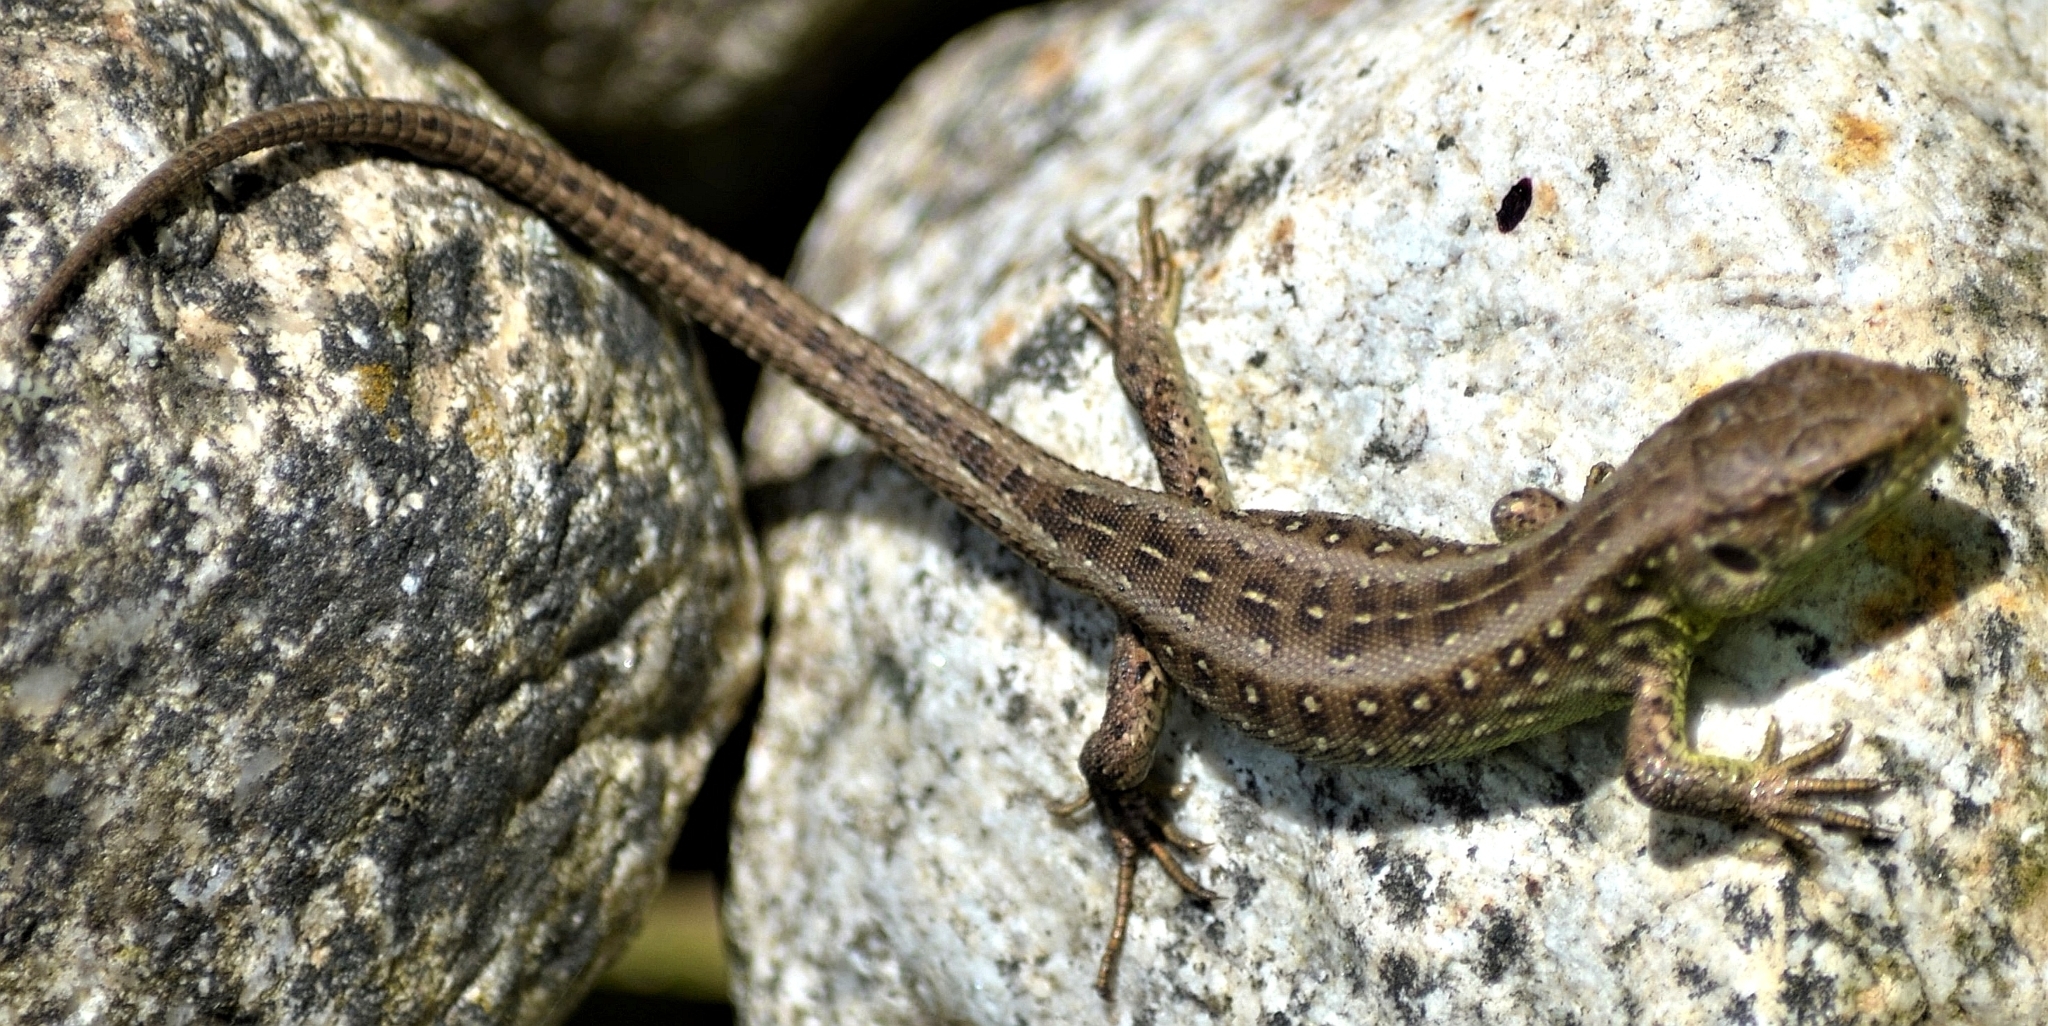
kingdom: Animalia
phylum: Chordata
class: Squamata
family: Lacertidae
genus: Lacerta
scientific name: Lacerta agilis
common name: Sand lizard
